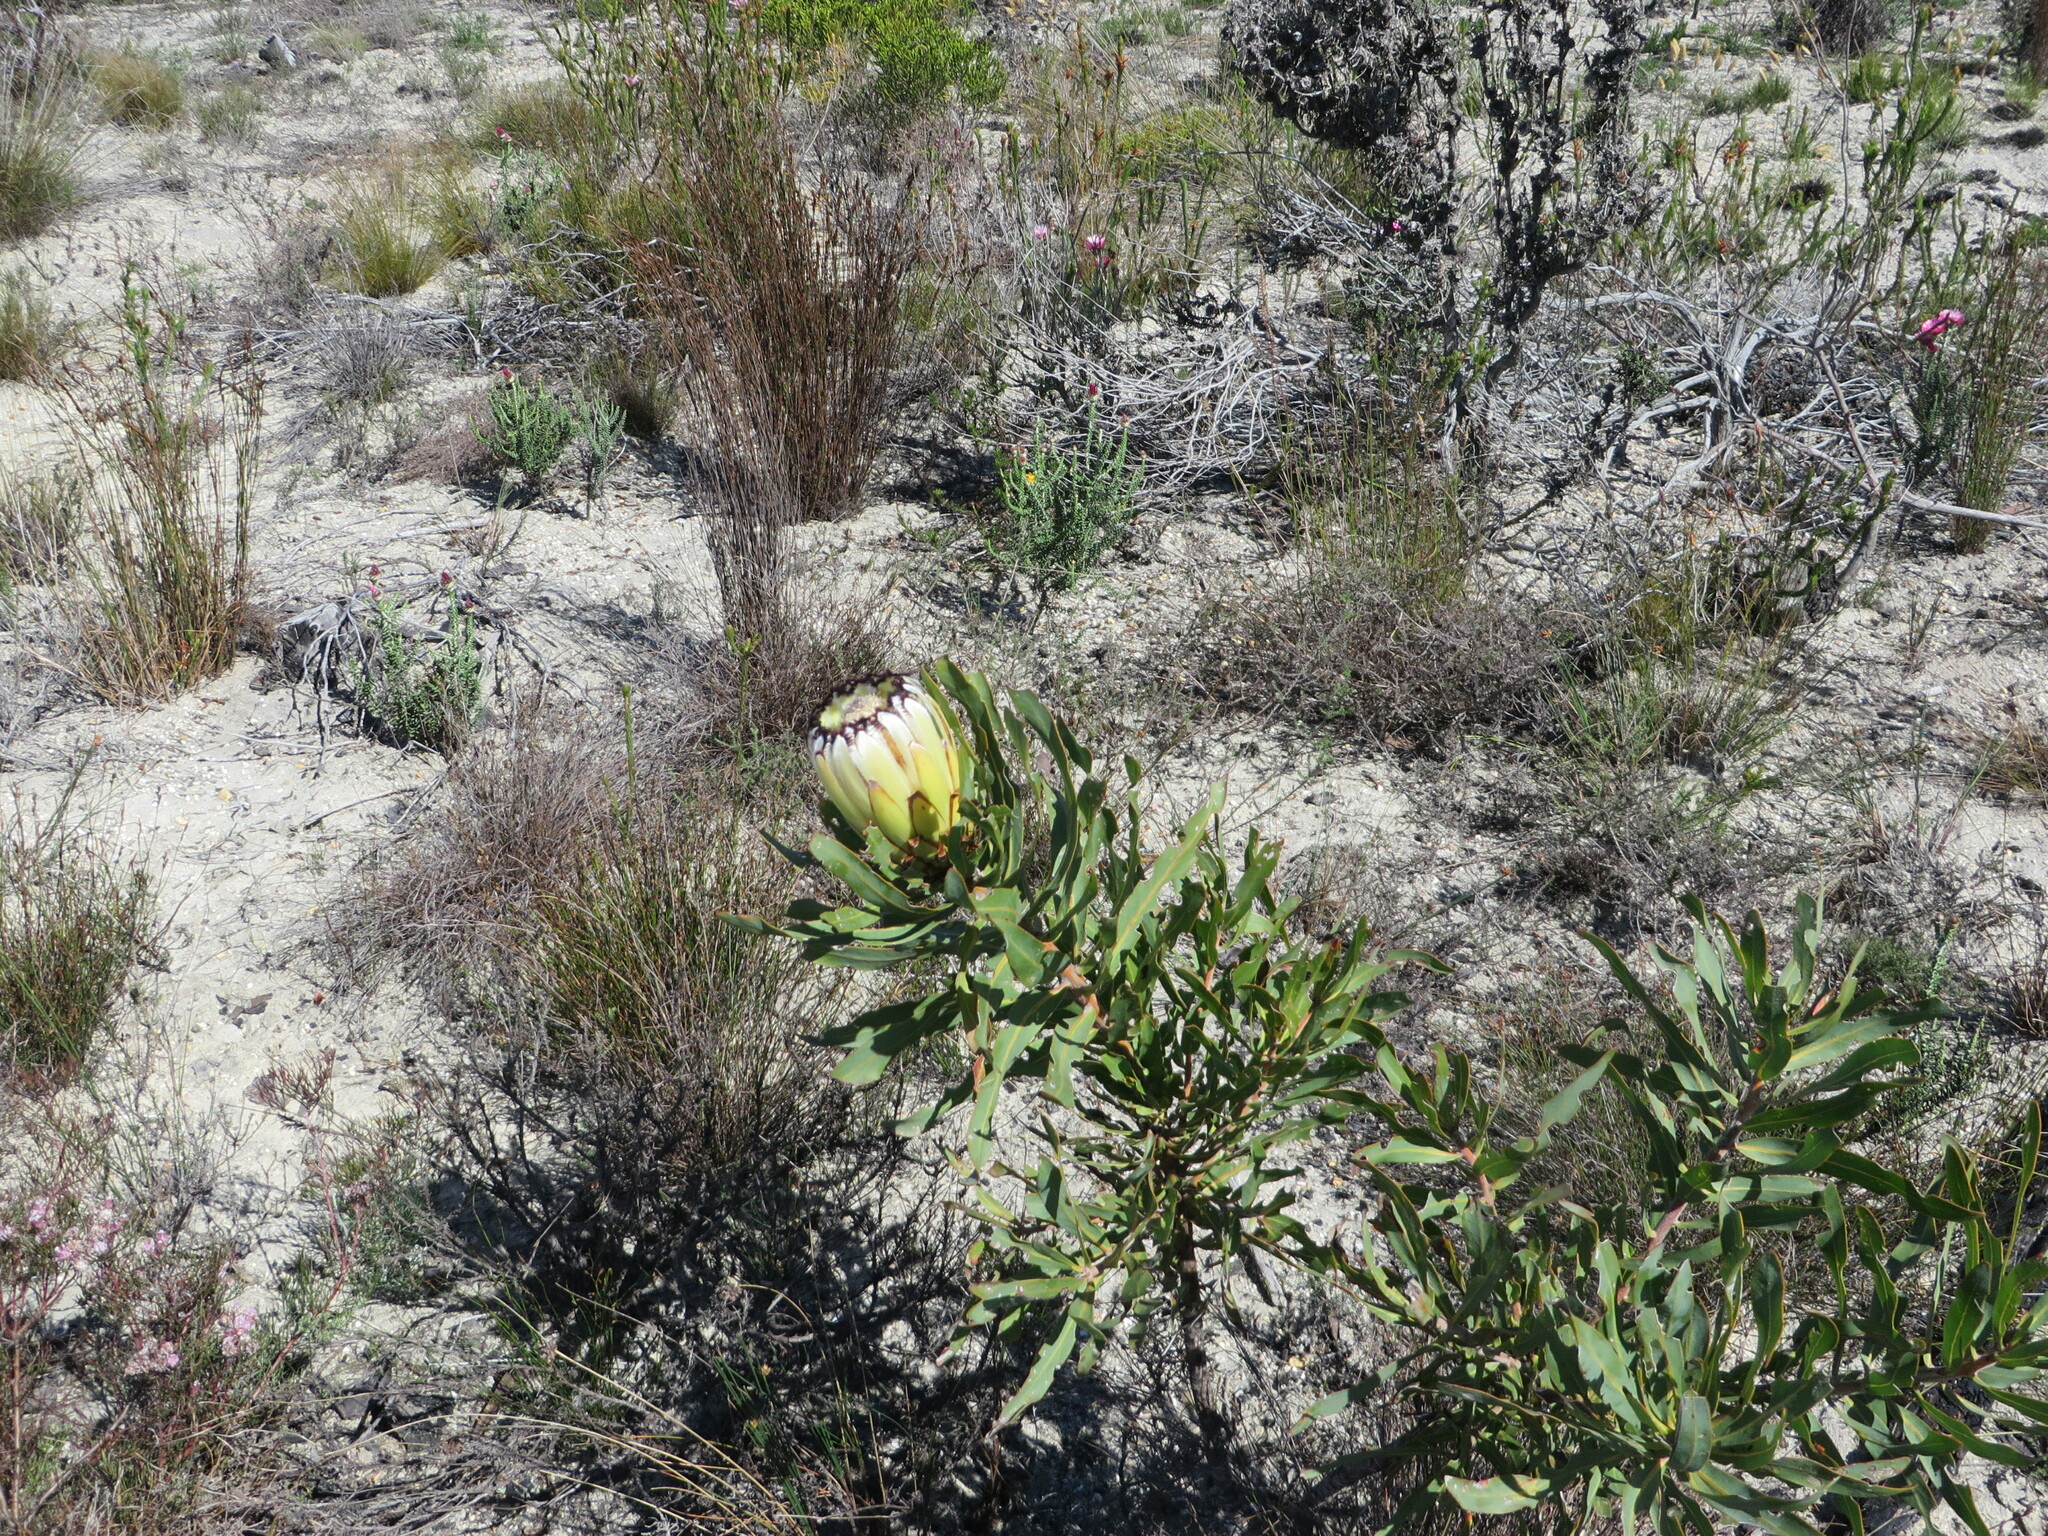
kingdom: Plantae
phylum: Tracheophyta
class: Magnoliopsida
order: Proteales
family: Proteaceae
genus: Protea
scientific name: Protea neriifolia
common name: Blue sugarbush
